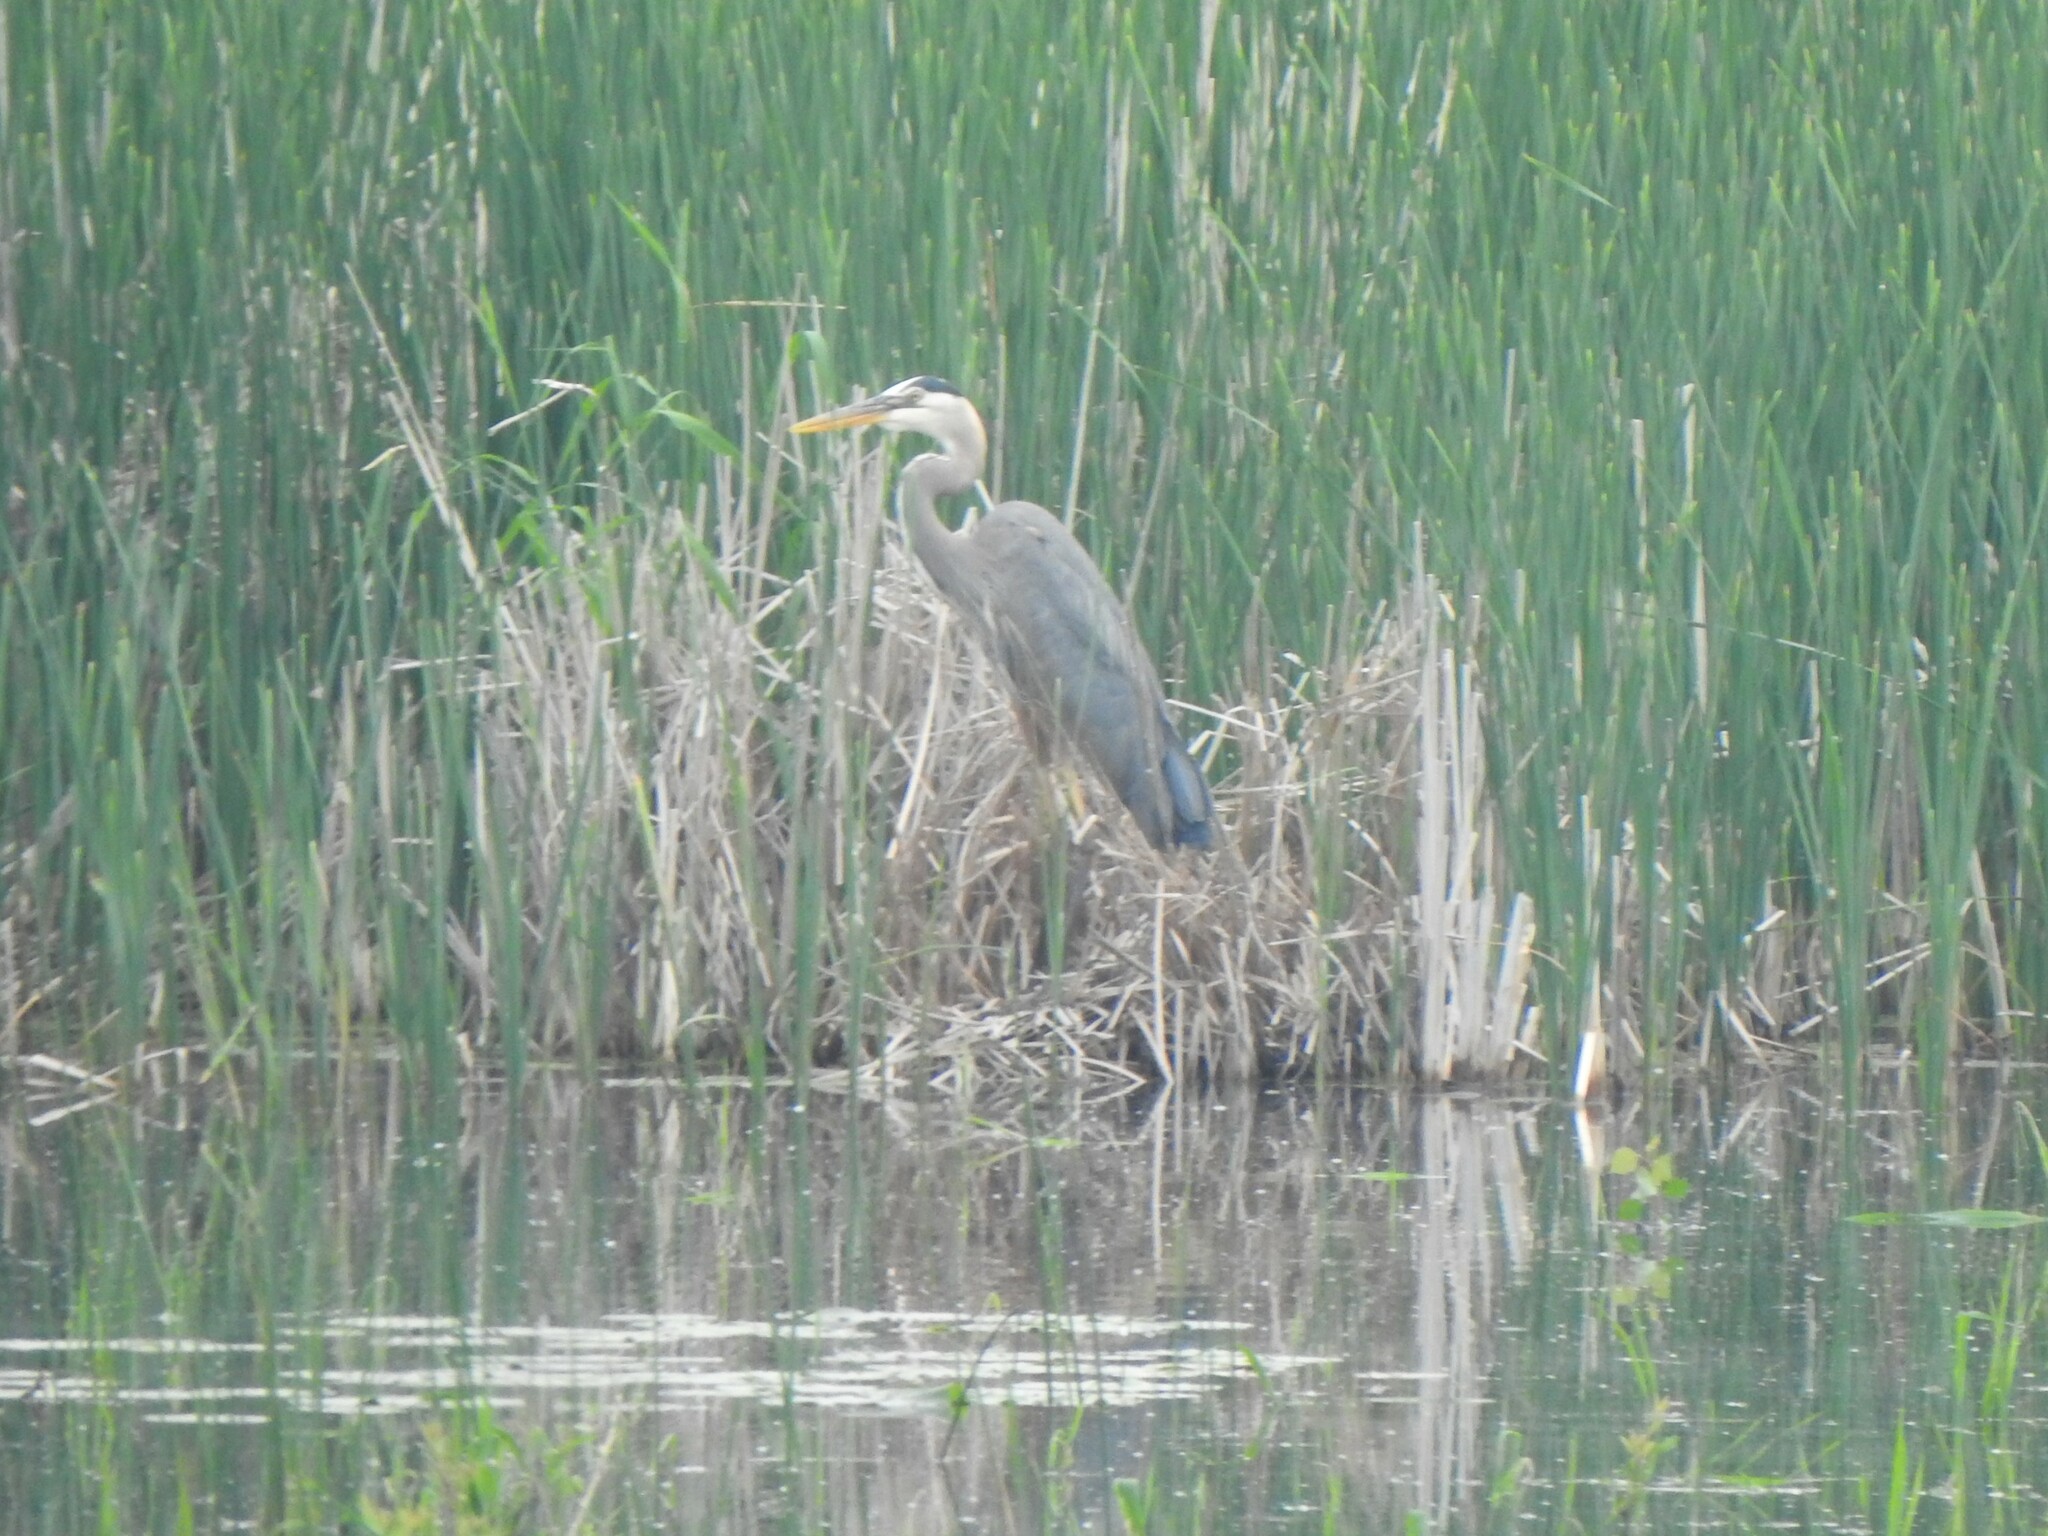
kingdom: Animalia
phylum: Chordata
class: Aves
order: Pelecaniformes
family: Ardeidae
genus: Ardea
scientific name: Ardea herodias
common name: Great blue heron
